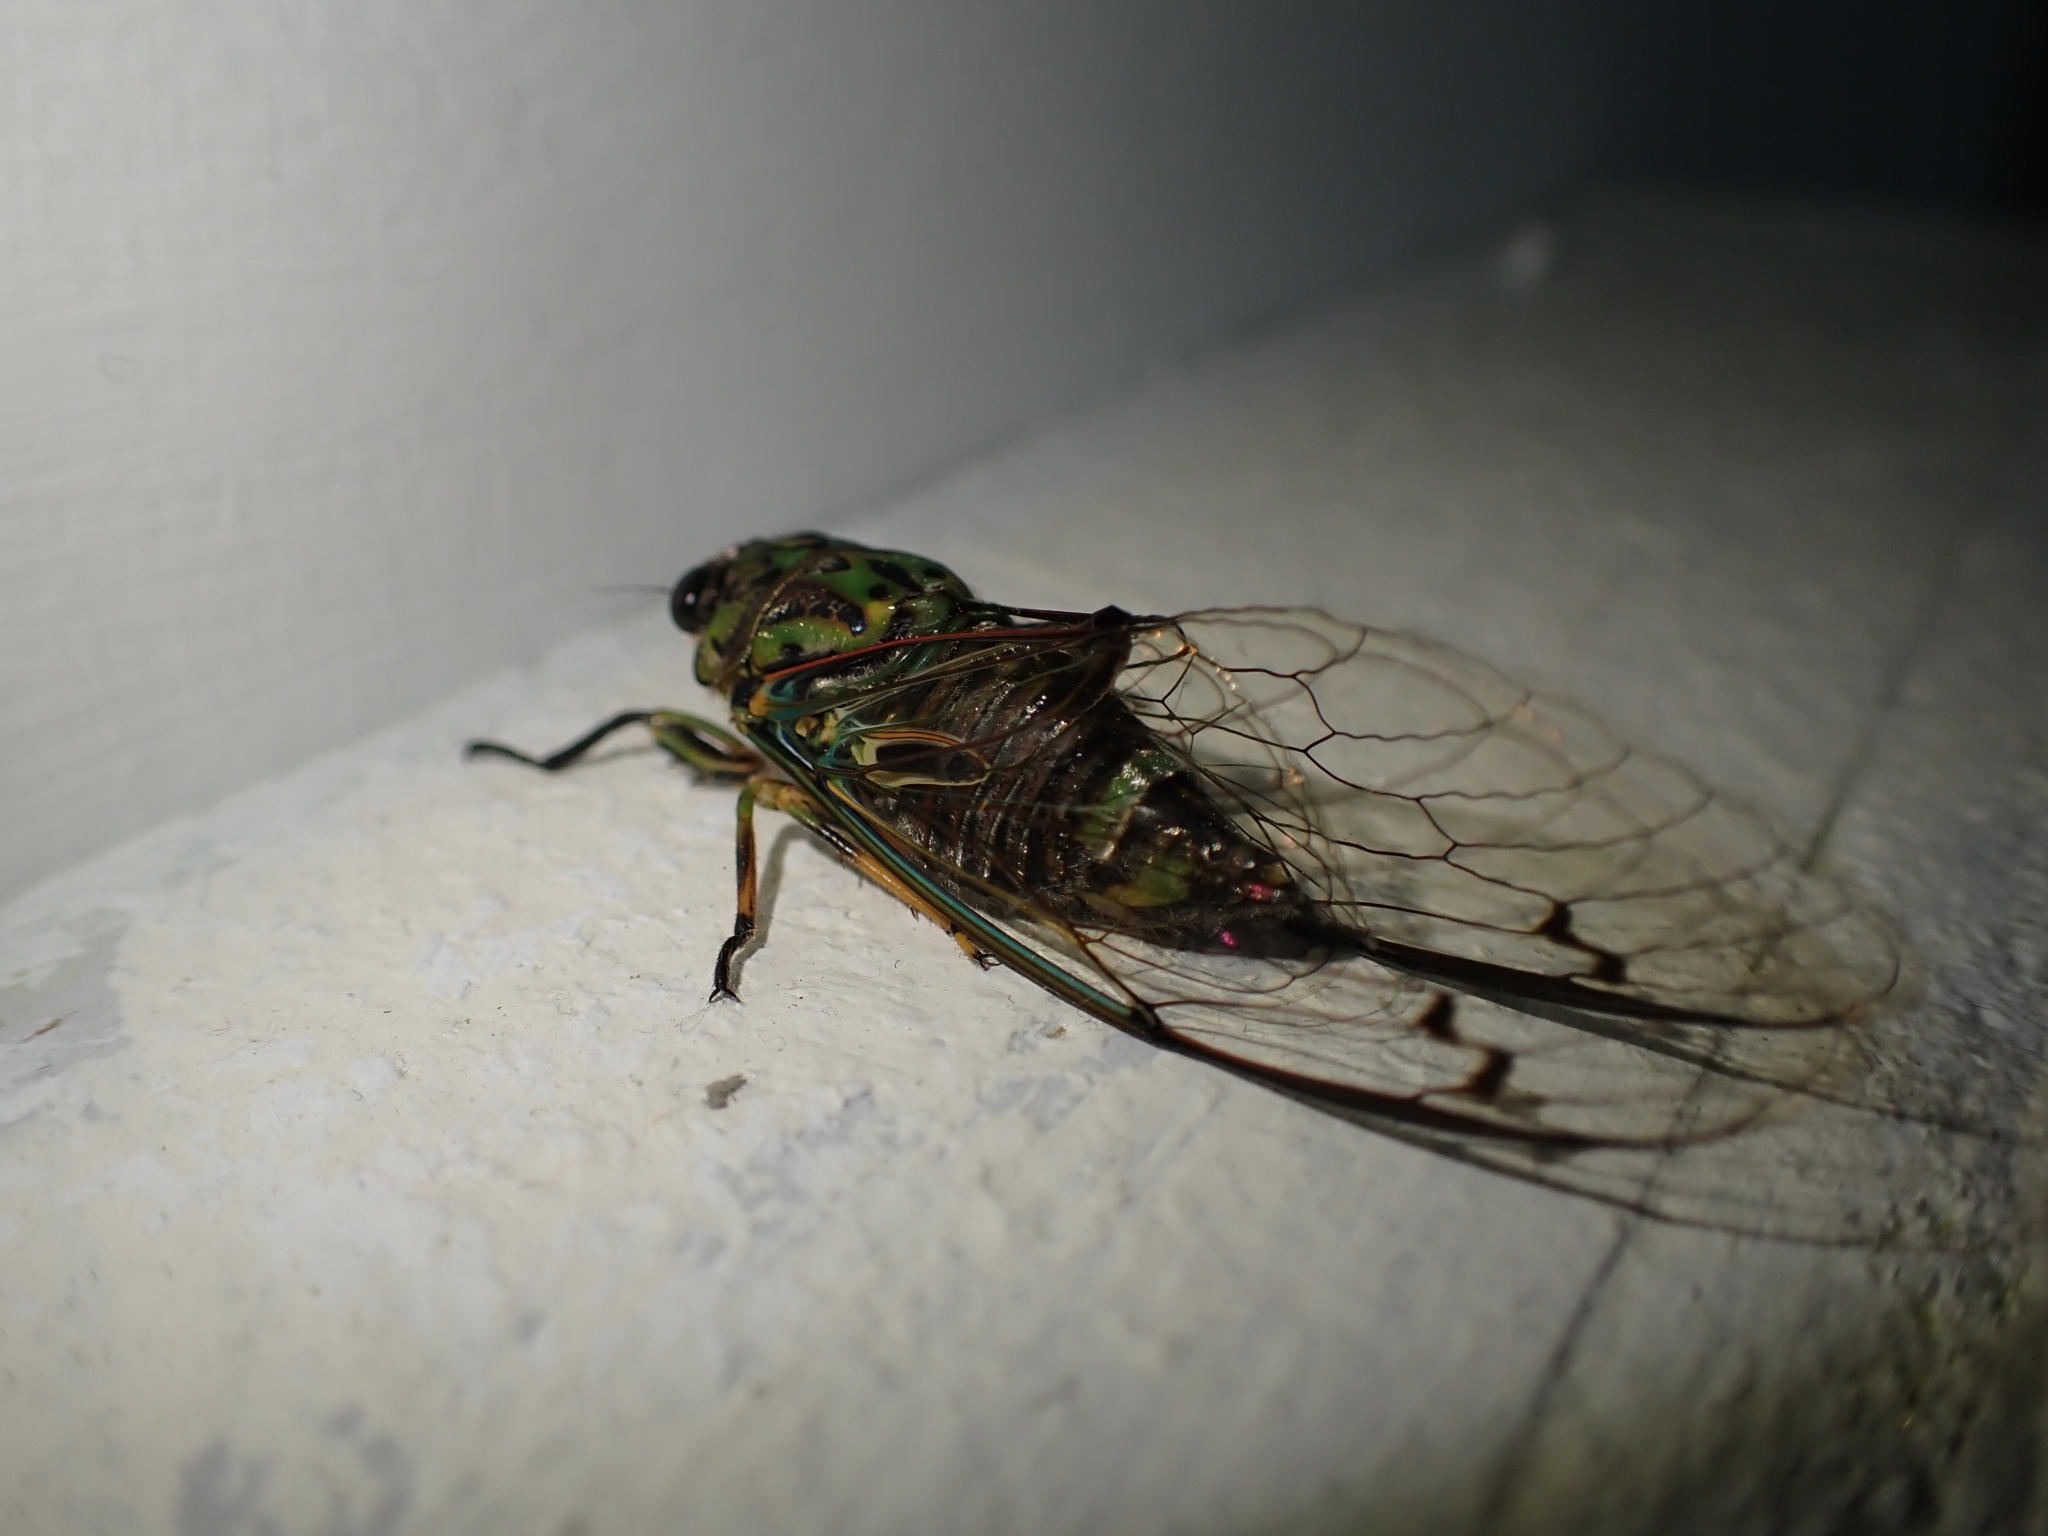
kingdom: Animalia
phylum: Arthropoda
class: Insecta
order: Hemiptera
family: Cicadidae
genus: Amphipsalta
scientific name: Amphipsalta zelandica
